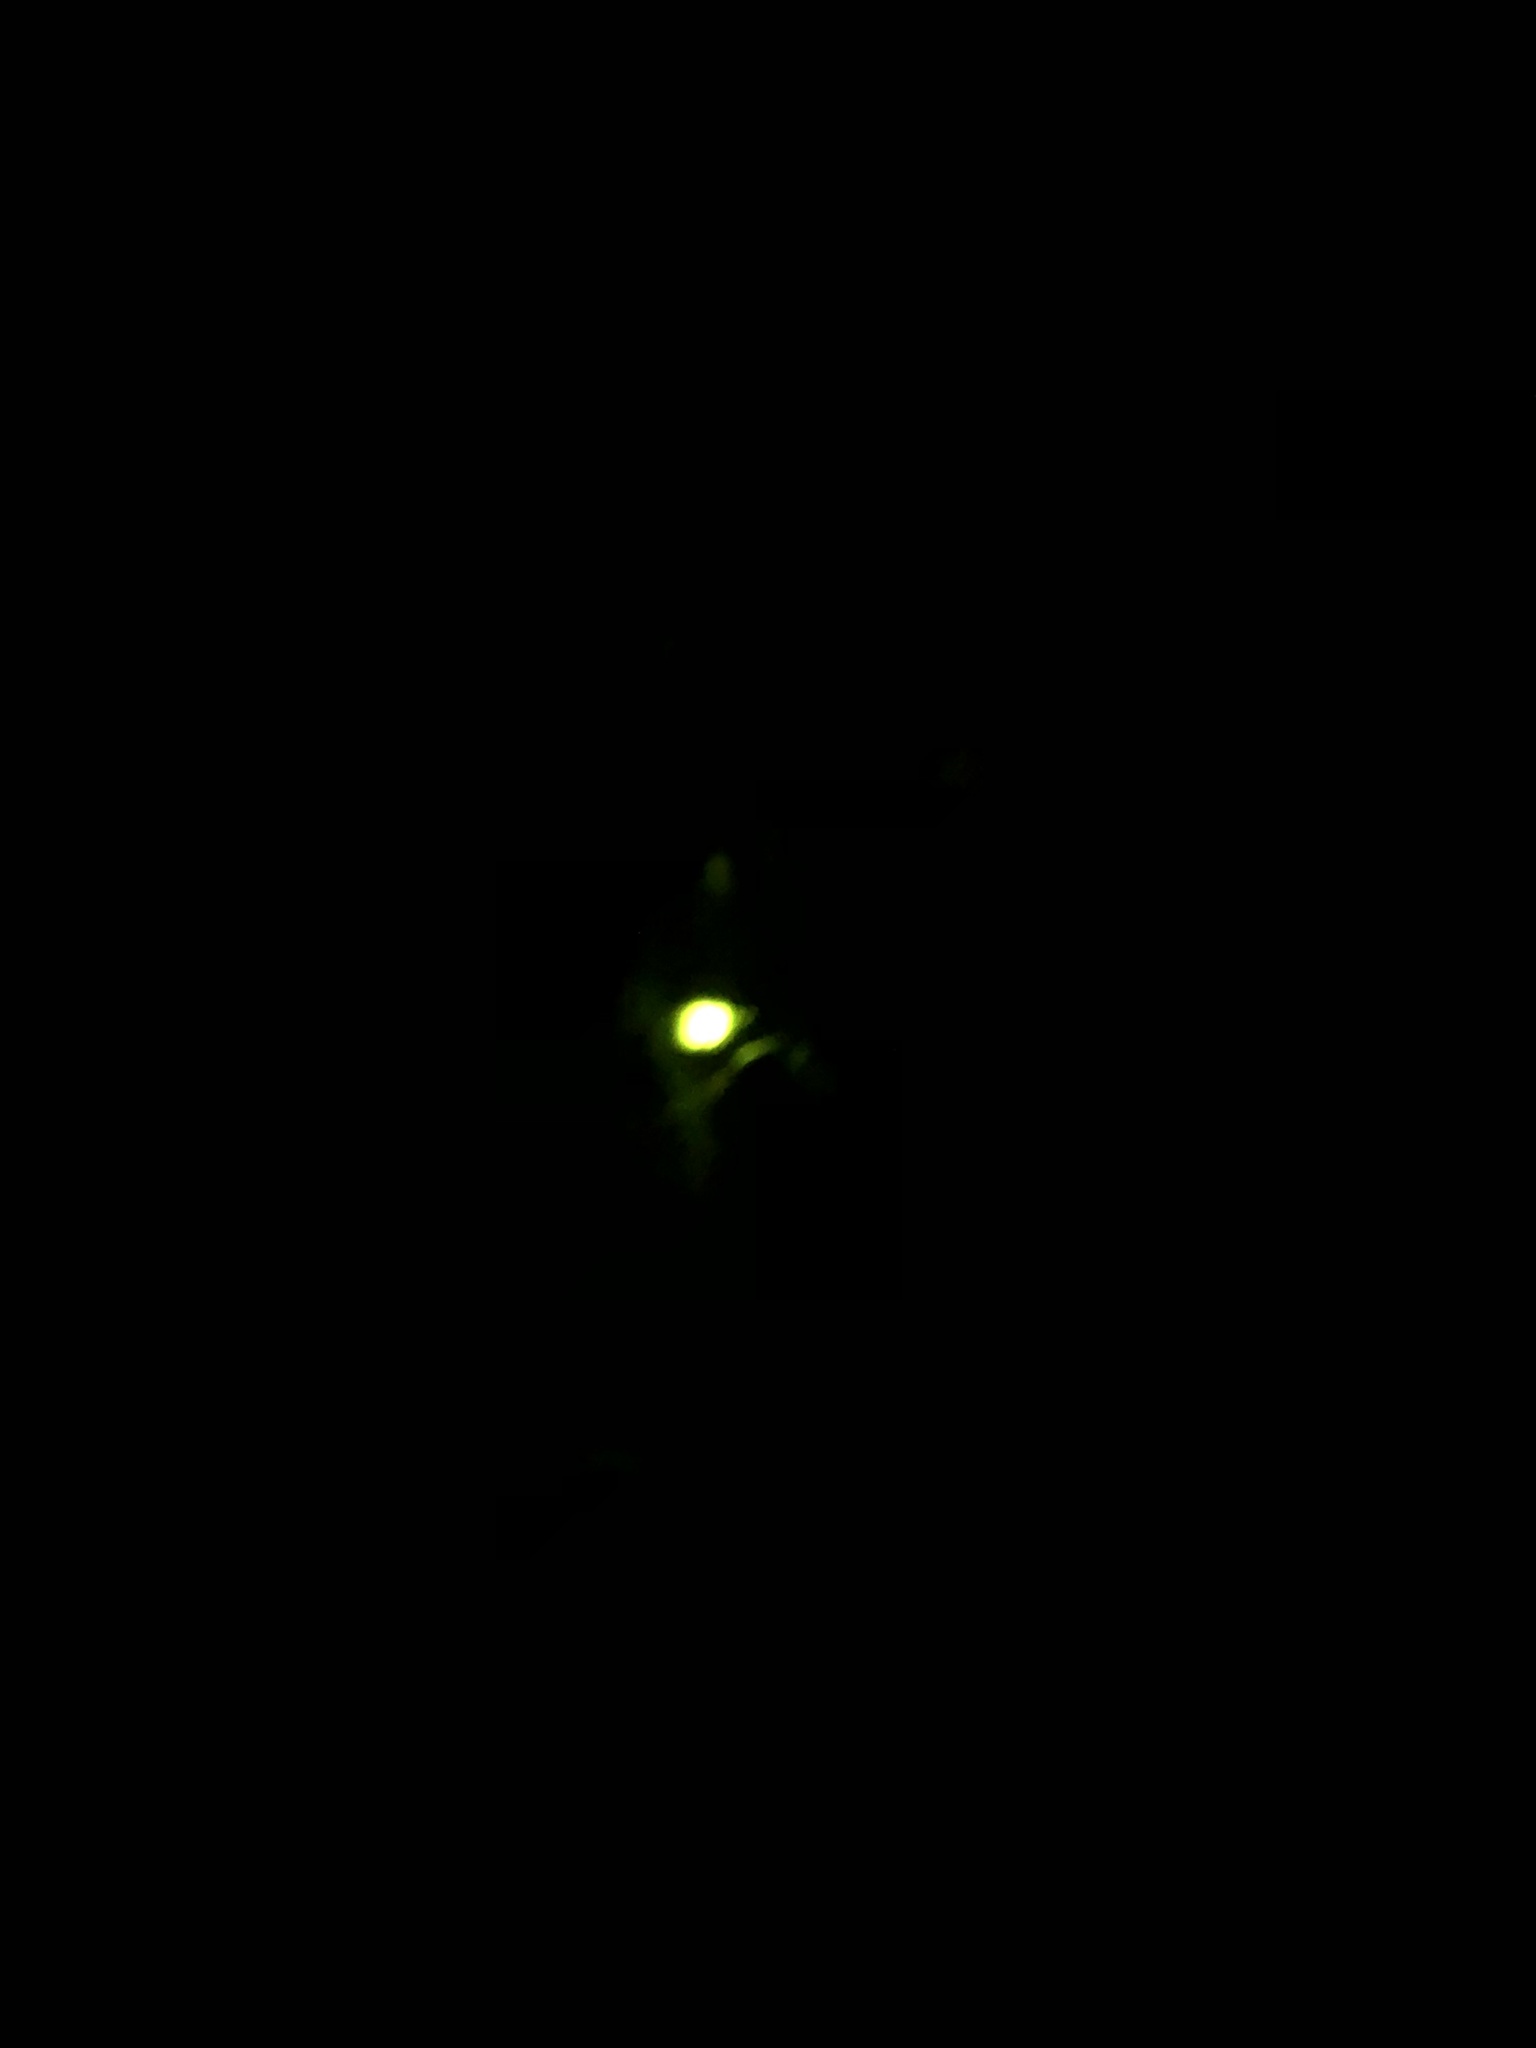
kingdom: Animalia
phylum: Arthropoda
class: Insecta
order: Coleoptera
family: Lampyridae
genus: Lampyris
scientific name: Lampyris noctiluca
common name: Glow-worm
